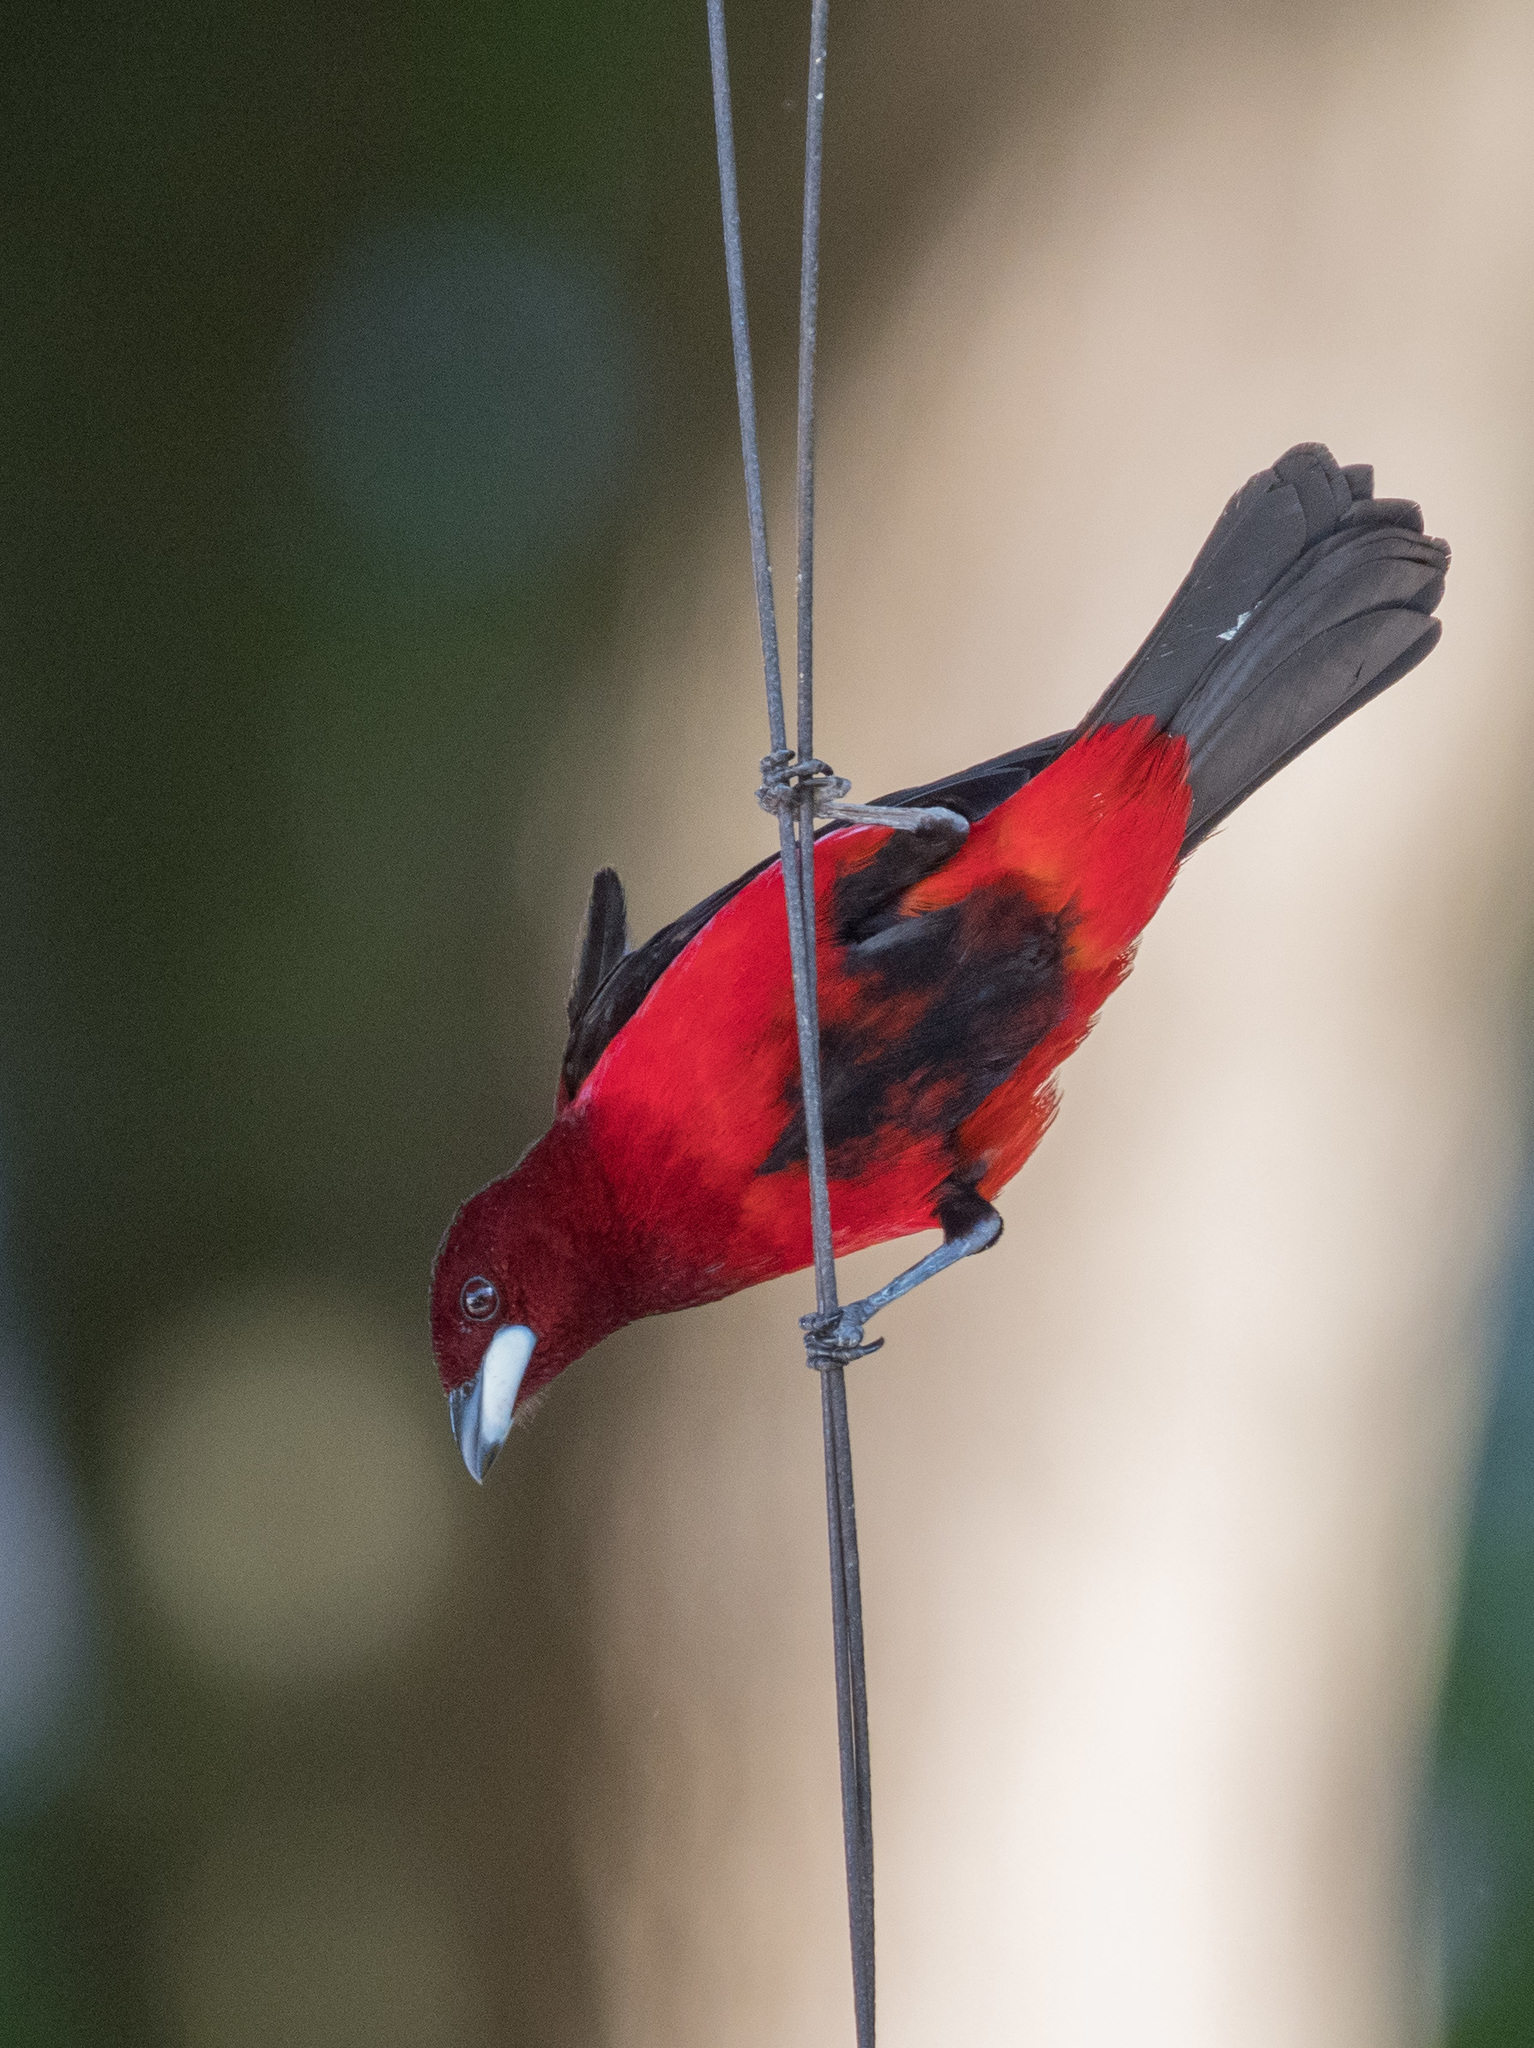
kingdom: Animalia
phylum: Chordata
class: Aves
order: Passeriformes
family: Thraupidae
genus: Ramphocelus
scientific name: Ramphocelus dimidiatus
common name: Crimson-backed tanager
